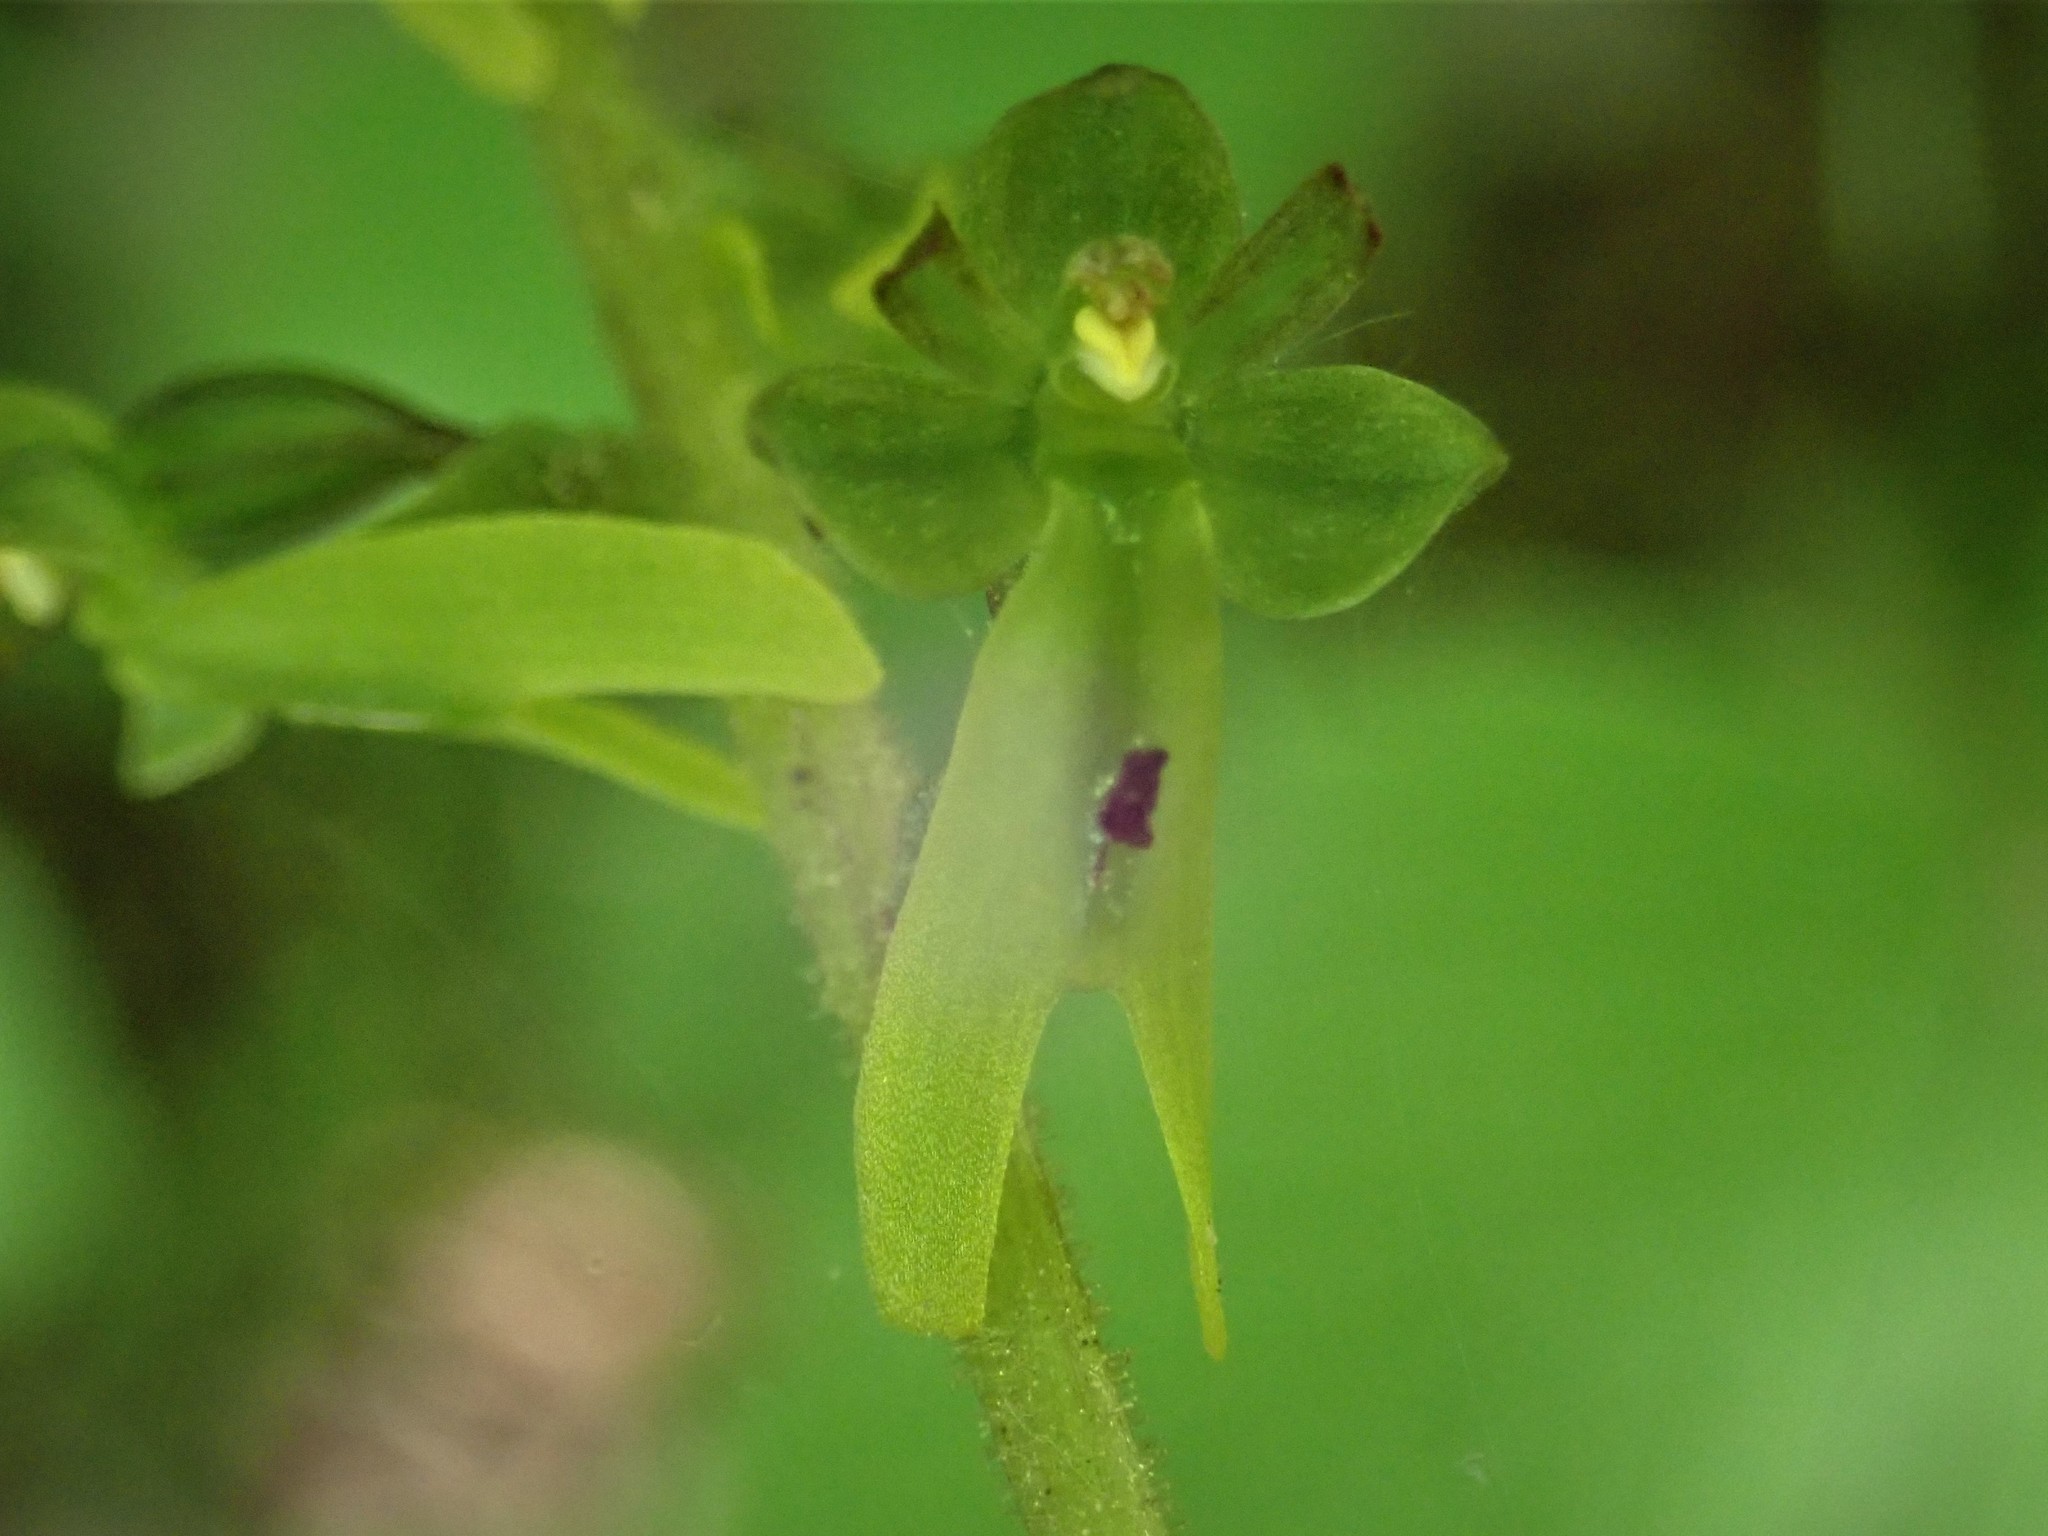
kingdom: Plantae
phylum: Tracheophyta
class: Liliopsida
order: Asparagales
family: Orchidaceae
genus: Neottia
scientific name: Neottia ovata
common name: Common twayblade
